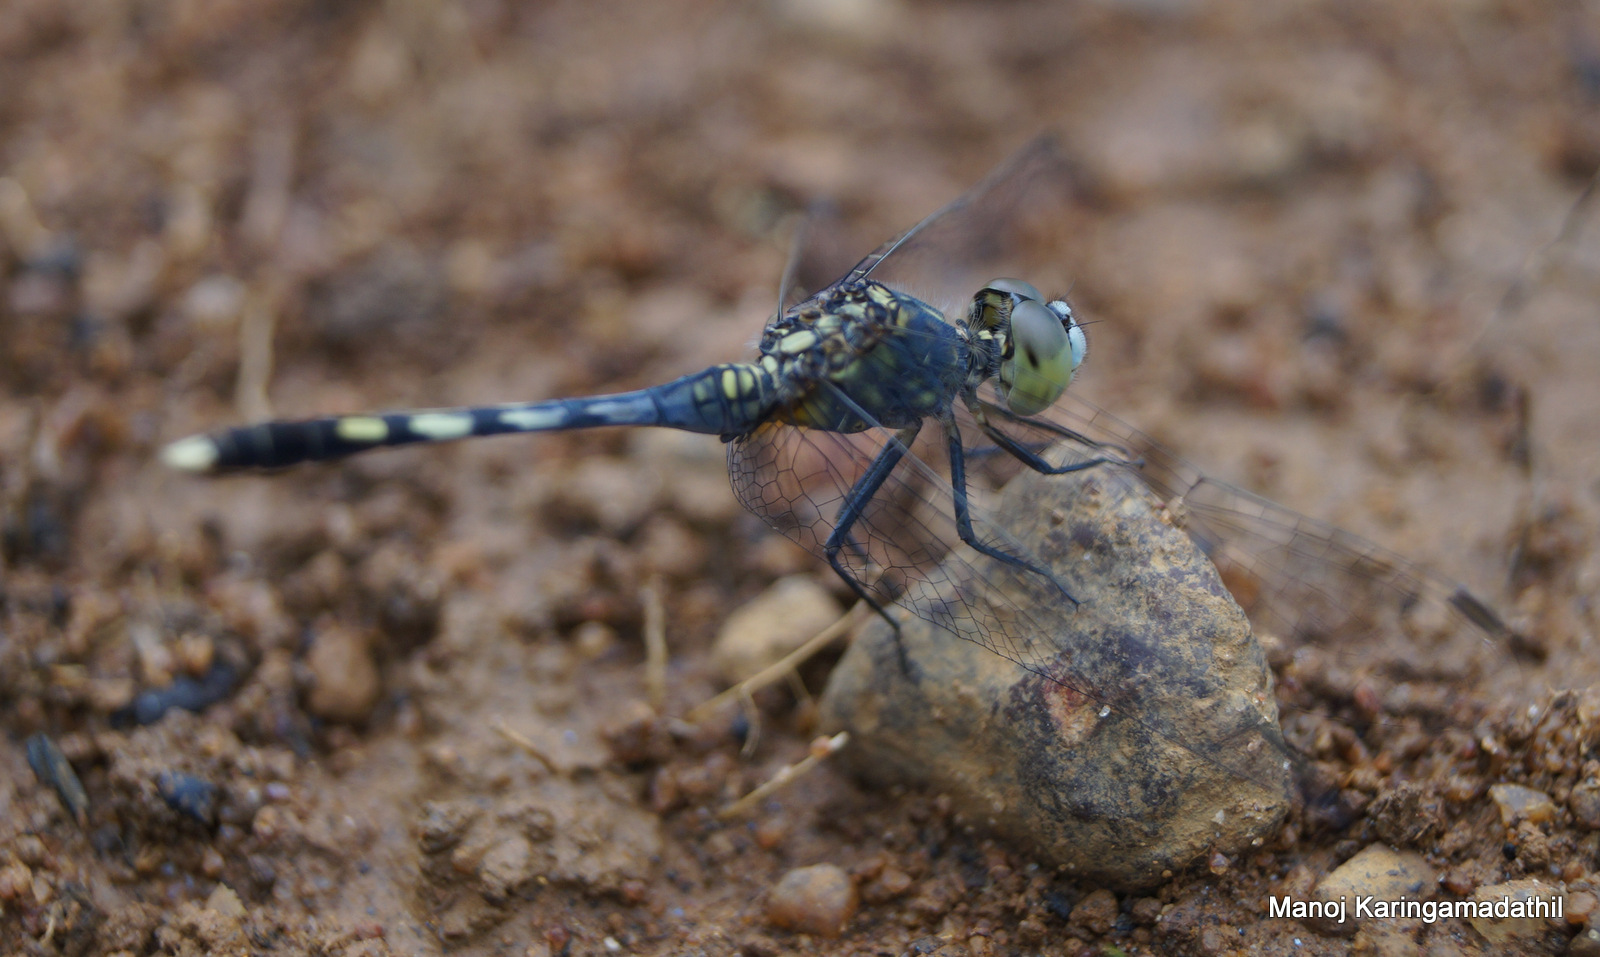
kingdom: Animalia
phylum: Arthropoda
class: Insecta
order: Odonata
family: Libellulidae
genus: Diplacodes
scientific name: Diplacodes trivialis
